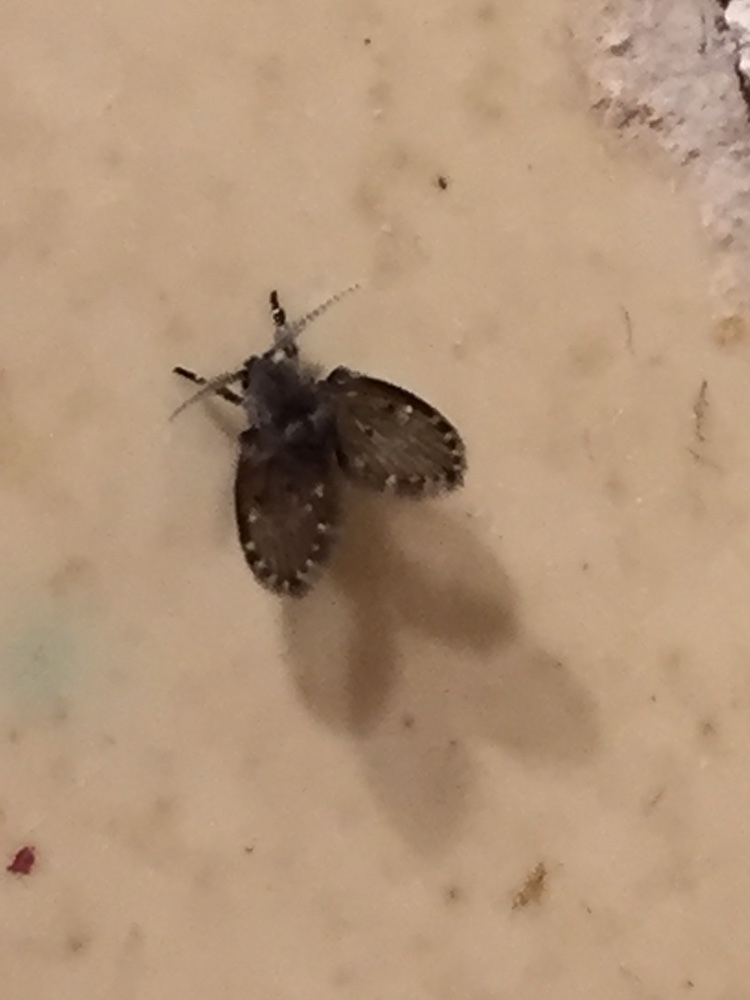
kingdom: Animalia
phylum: Arthropoda
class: Insecta
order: Diptera
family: Psychodidae
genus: Clogmia
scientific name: Clogmia albipunctatus
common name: White-spotted moth fly
